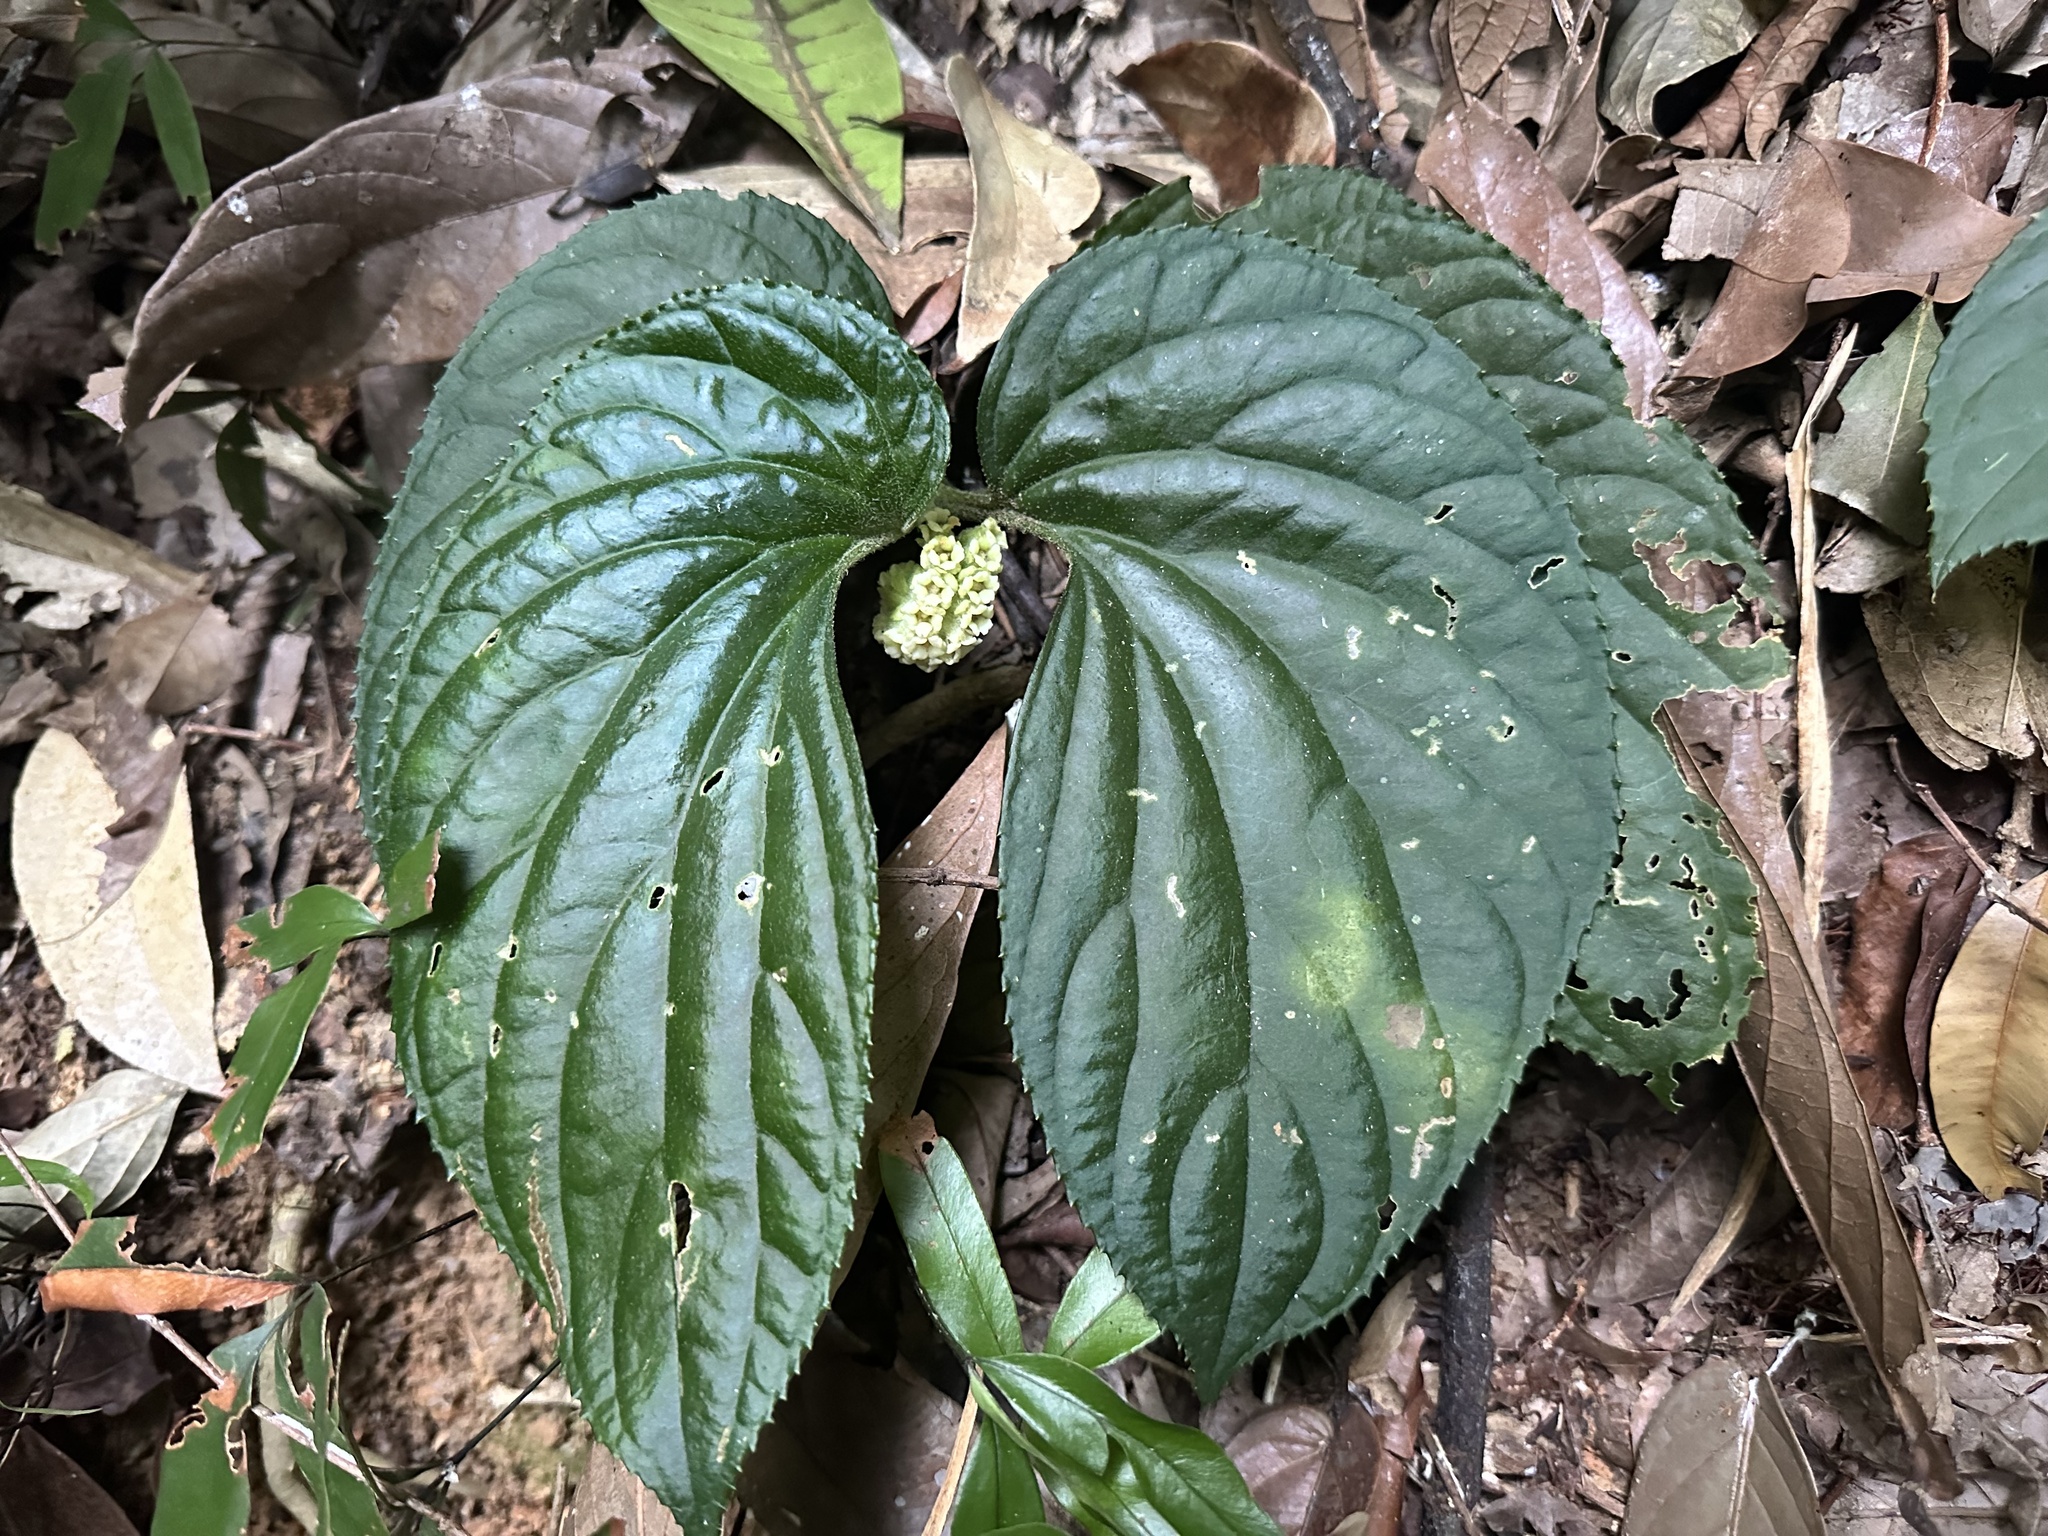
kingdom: Plantae
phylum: Tracheophyta
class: Magnoliopsida
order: Asterales
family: Pentaphragmataceae
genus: Pentaphragma
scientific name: Pentaphragma begoniifolium
